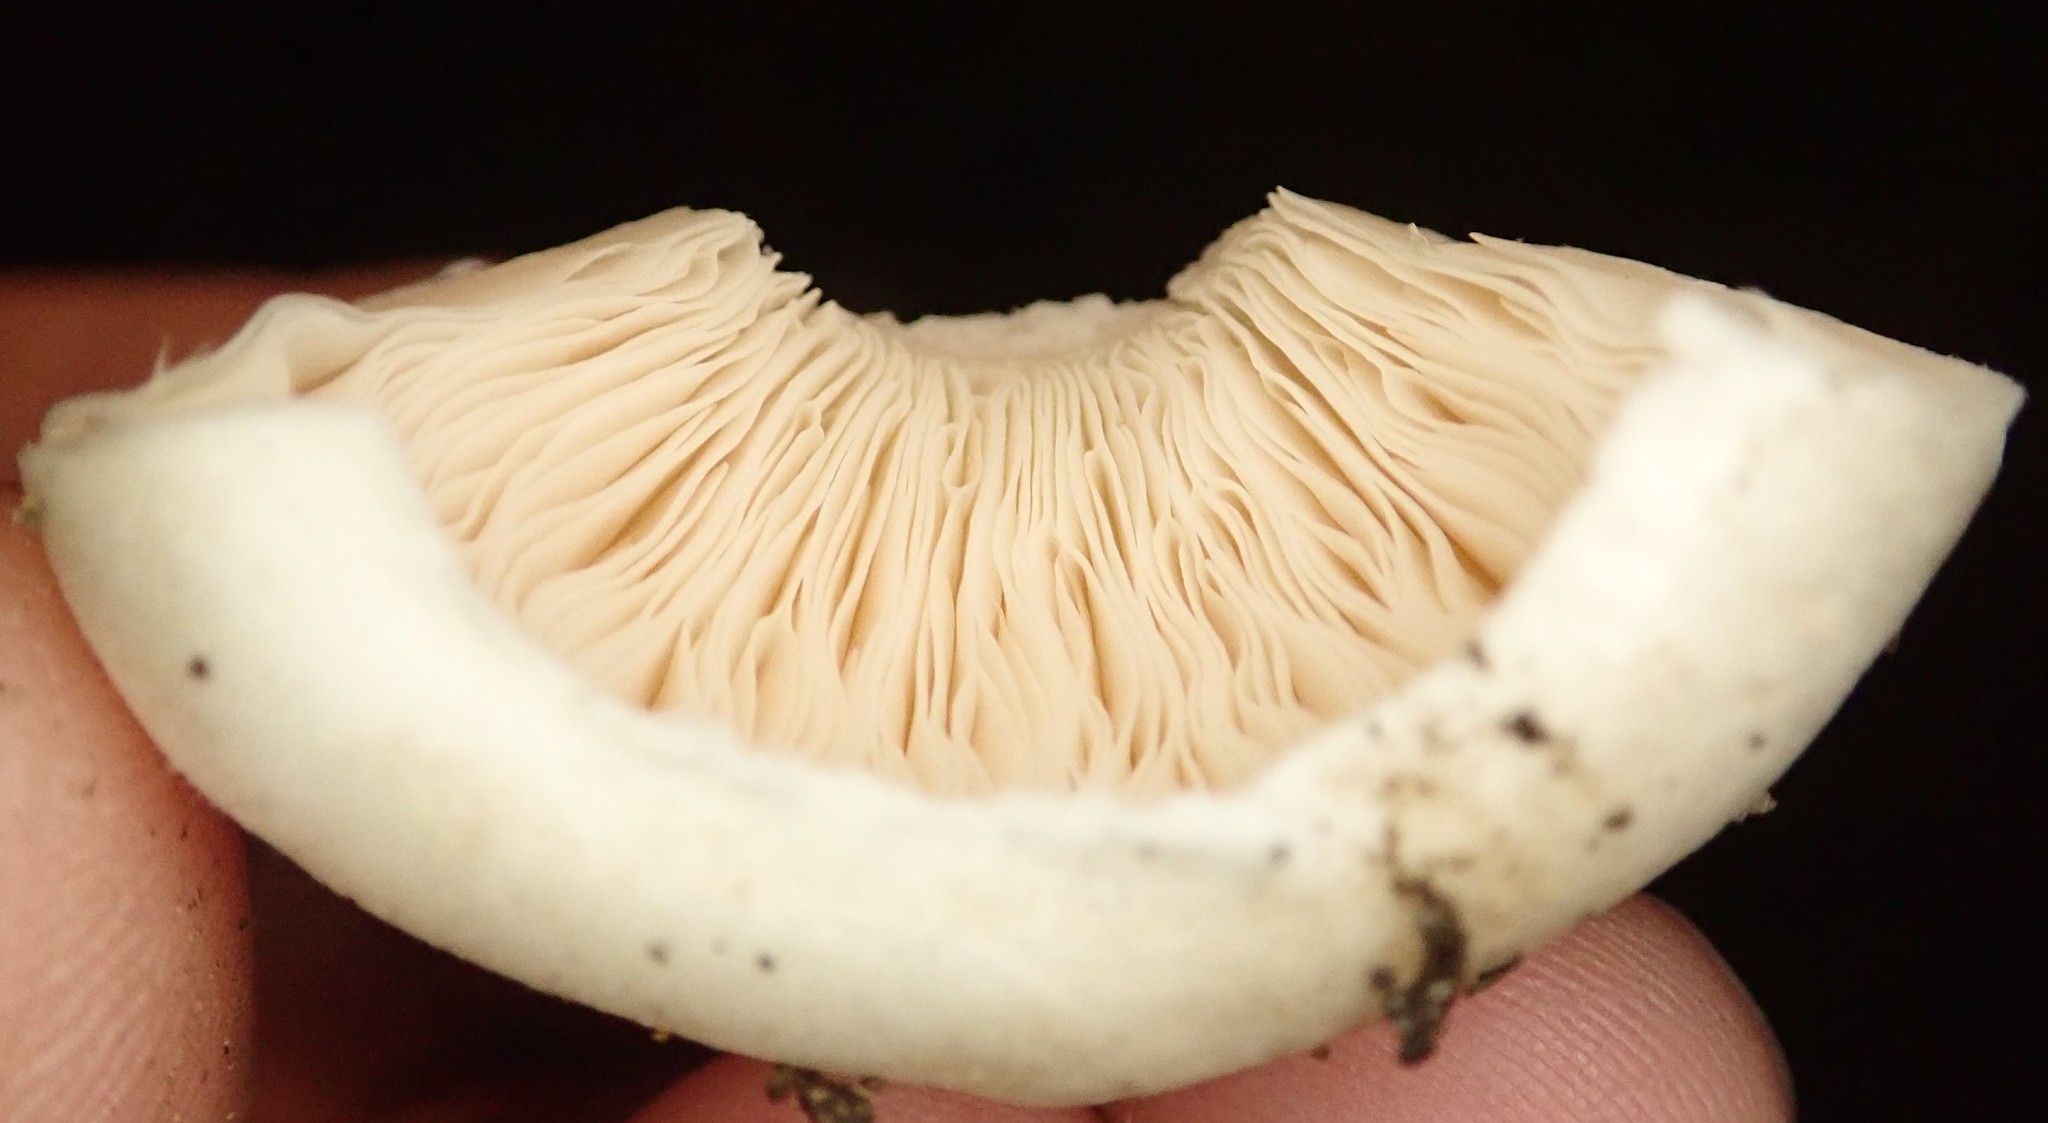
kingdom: Fungi
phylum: Basidiomycota
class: Agaricomycetes
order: Agaricales
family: Agaricaceae
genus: Leucoagaricus
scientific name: Leucoagaricus leucothites
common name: White dapperling
